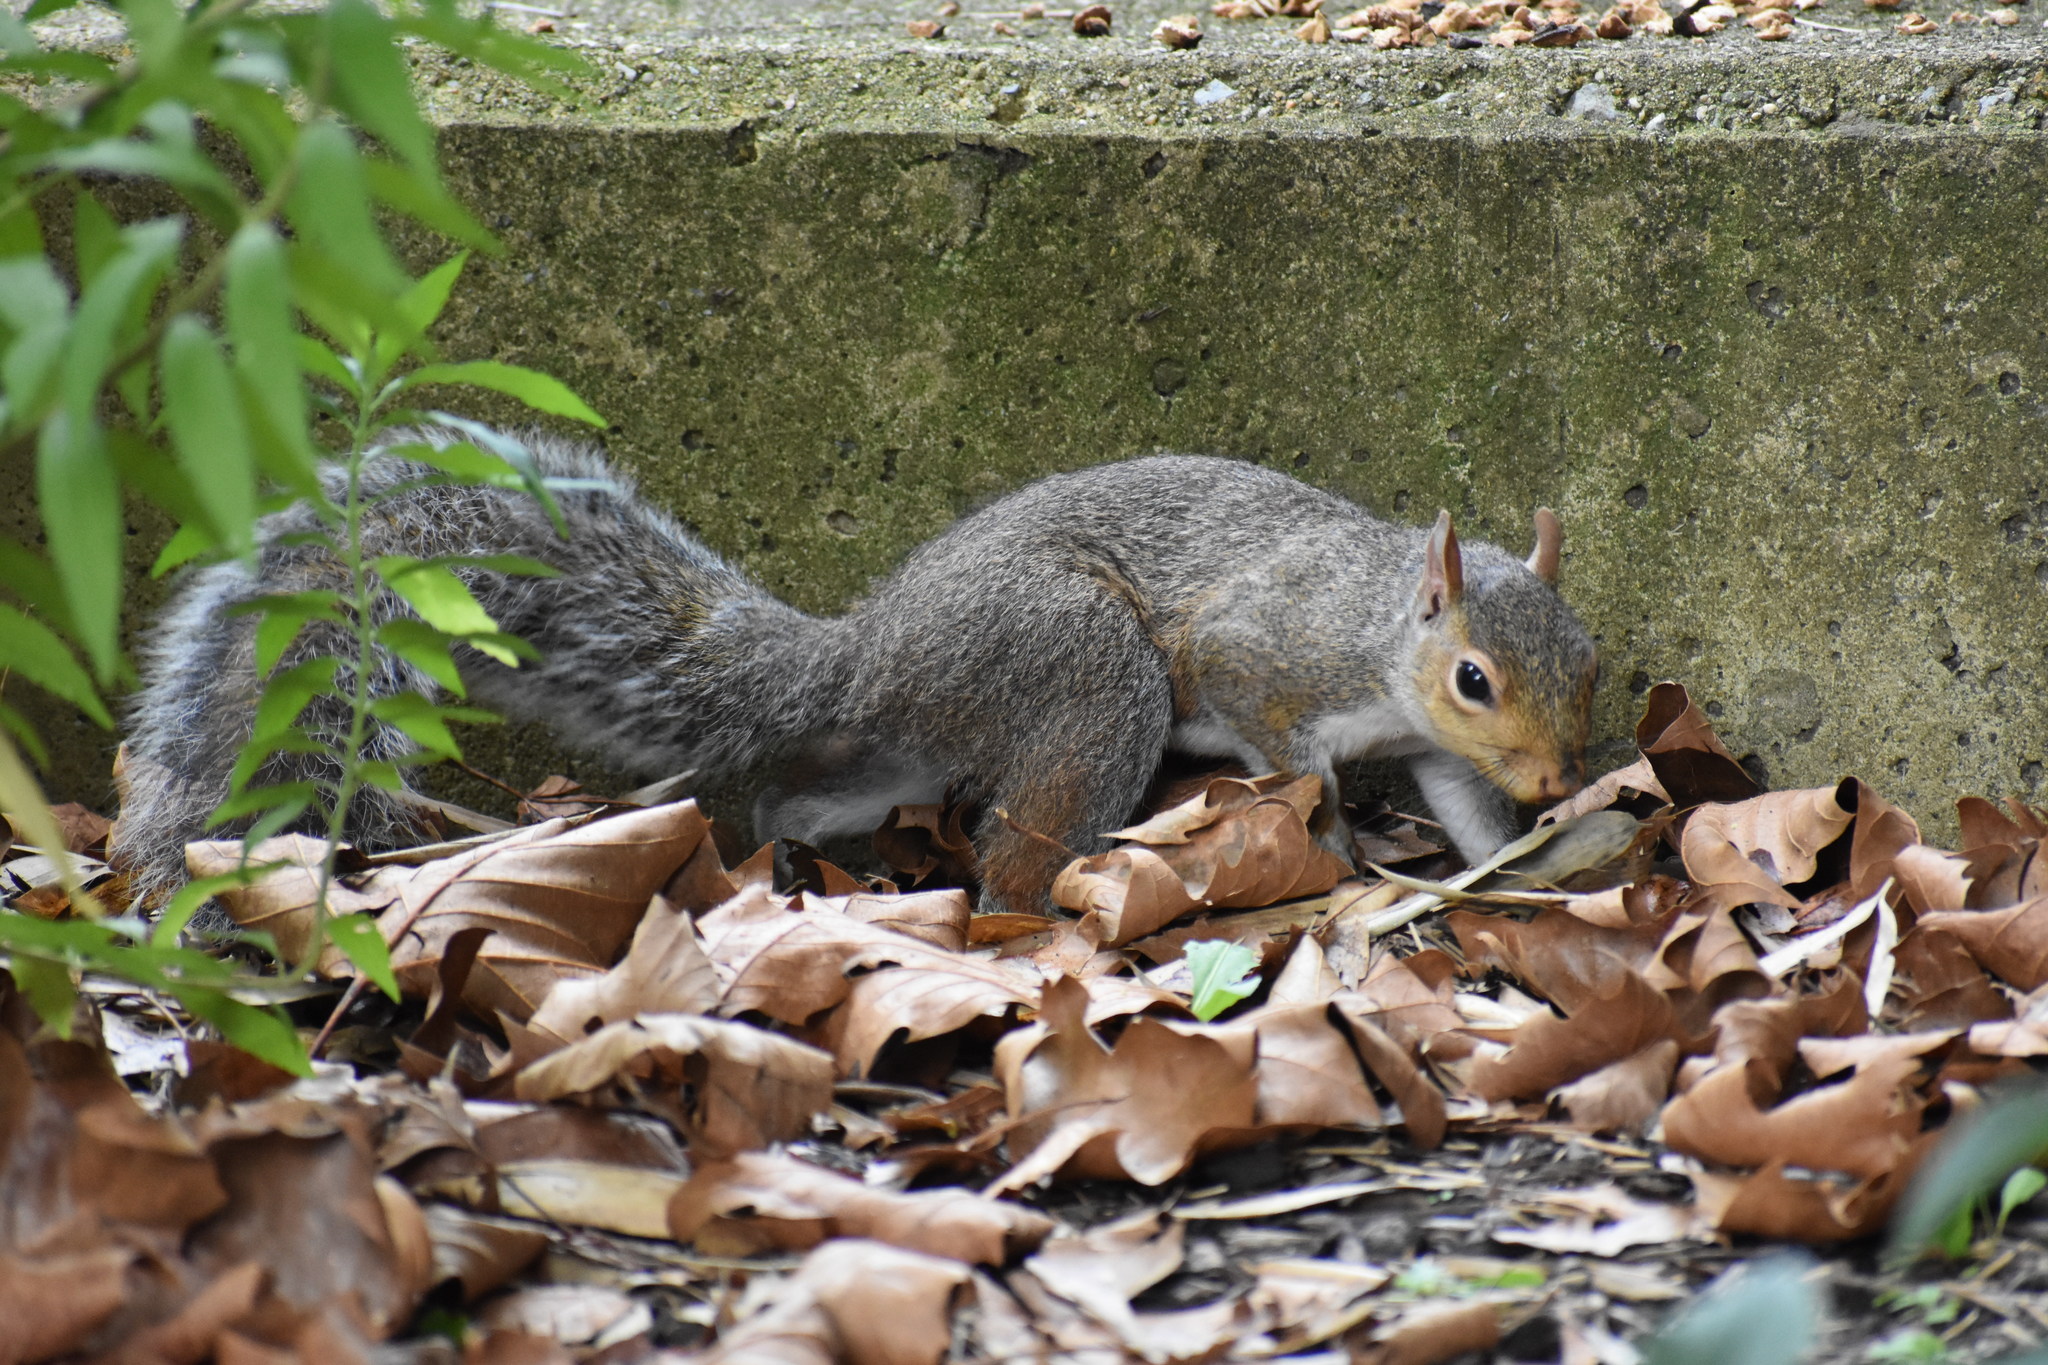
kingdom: Animalia
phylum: Chordata
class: Mammalia
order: Rodentia
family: Sciuridae
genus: Sciurus
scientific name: Sciurus carolinensis
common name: Eastern gray squirrel
